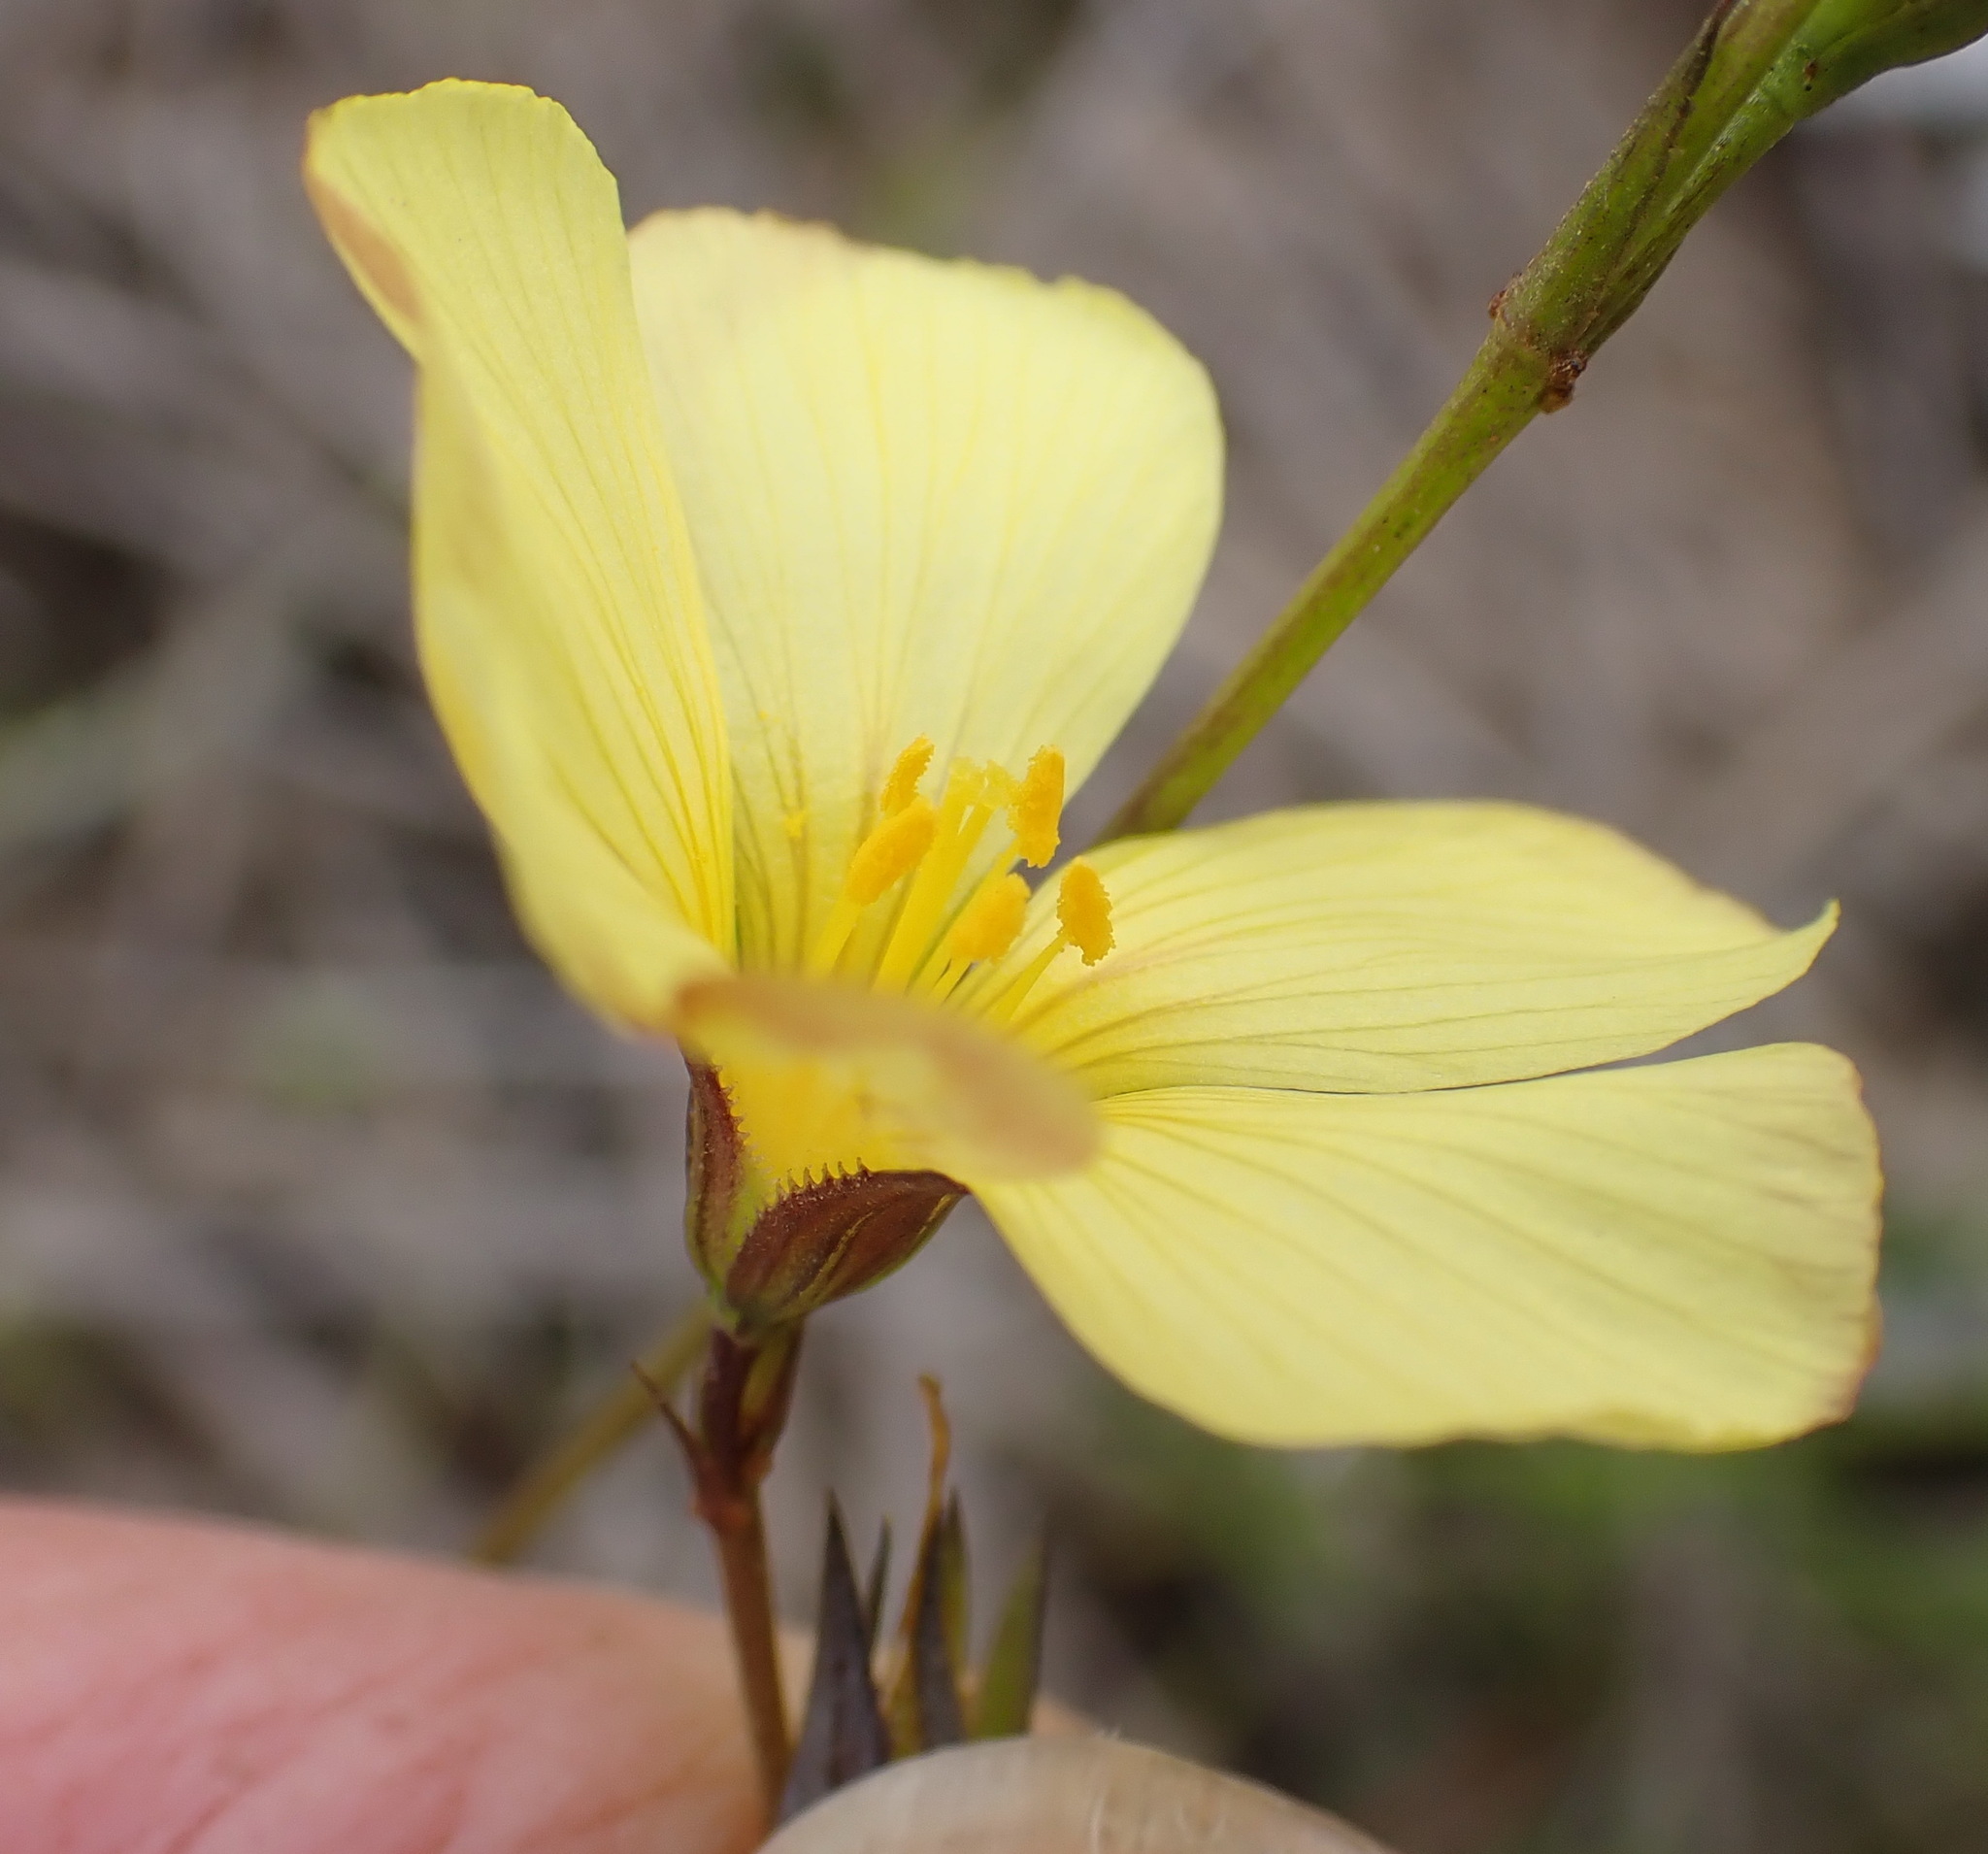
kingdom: Plantae
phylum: Tracheophyta
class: Magnoliopsida
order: Malpighiales
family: Linaceae
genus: Linum
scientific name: Linum africanum
